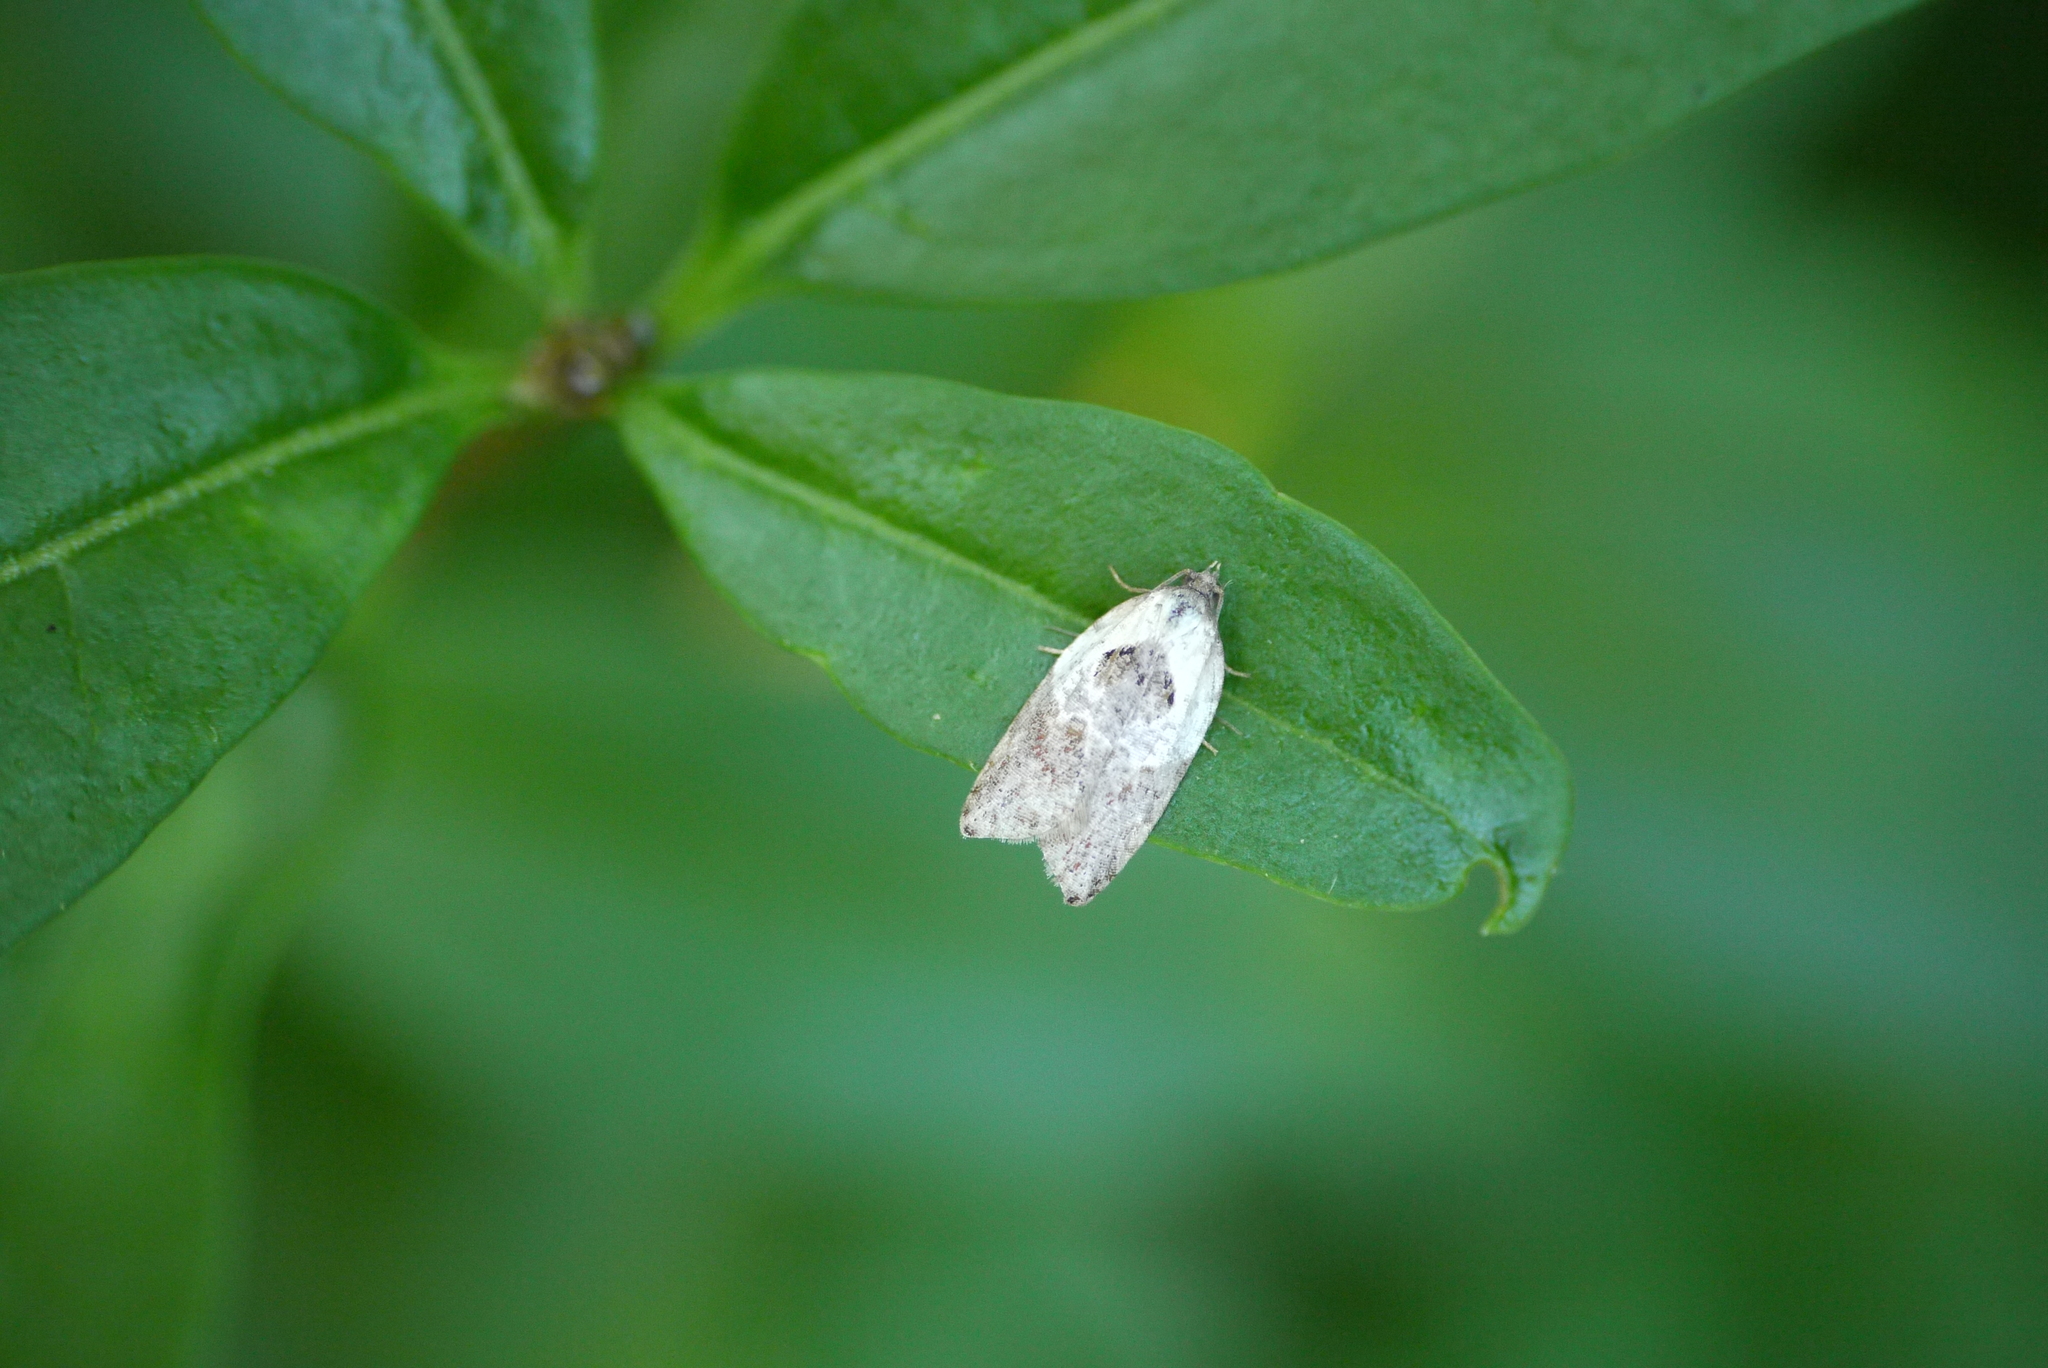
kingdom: Animalia
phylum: Arthropoda
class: Insecta
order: Lepidoptera
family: Tortricidae
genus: Acleris
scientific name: Acleris variegana
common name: Garden rose tortrix
